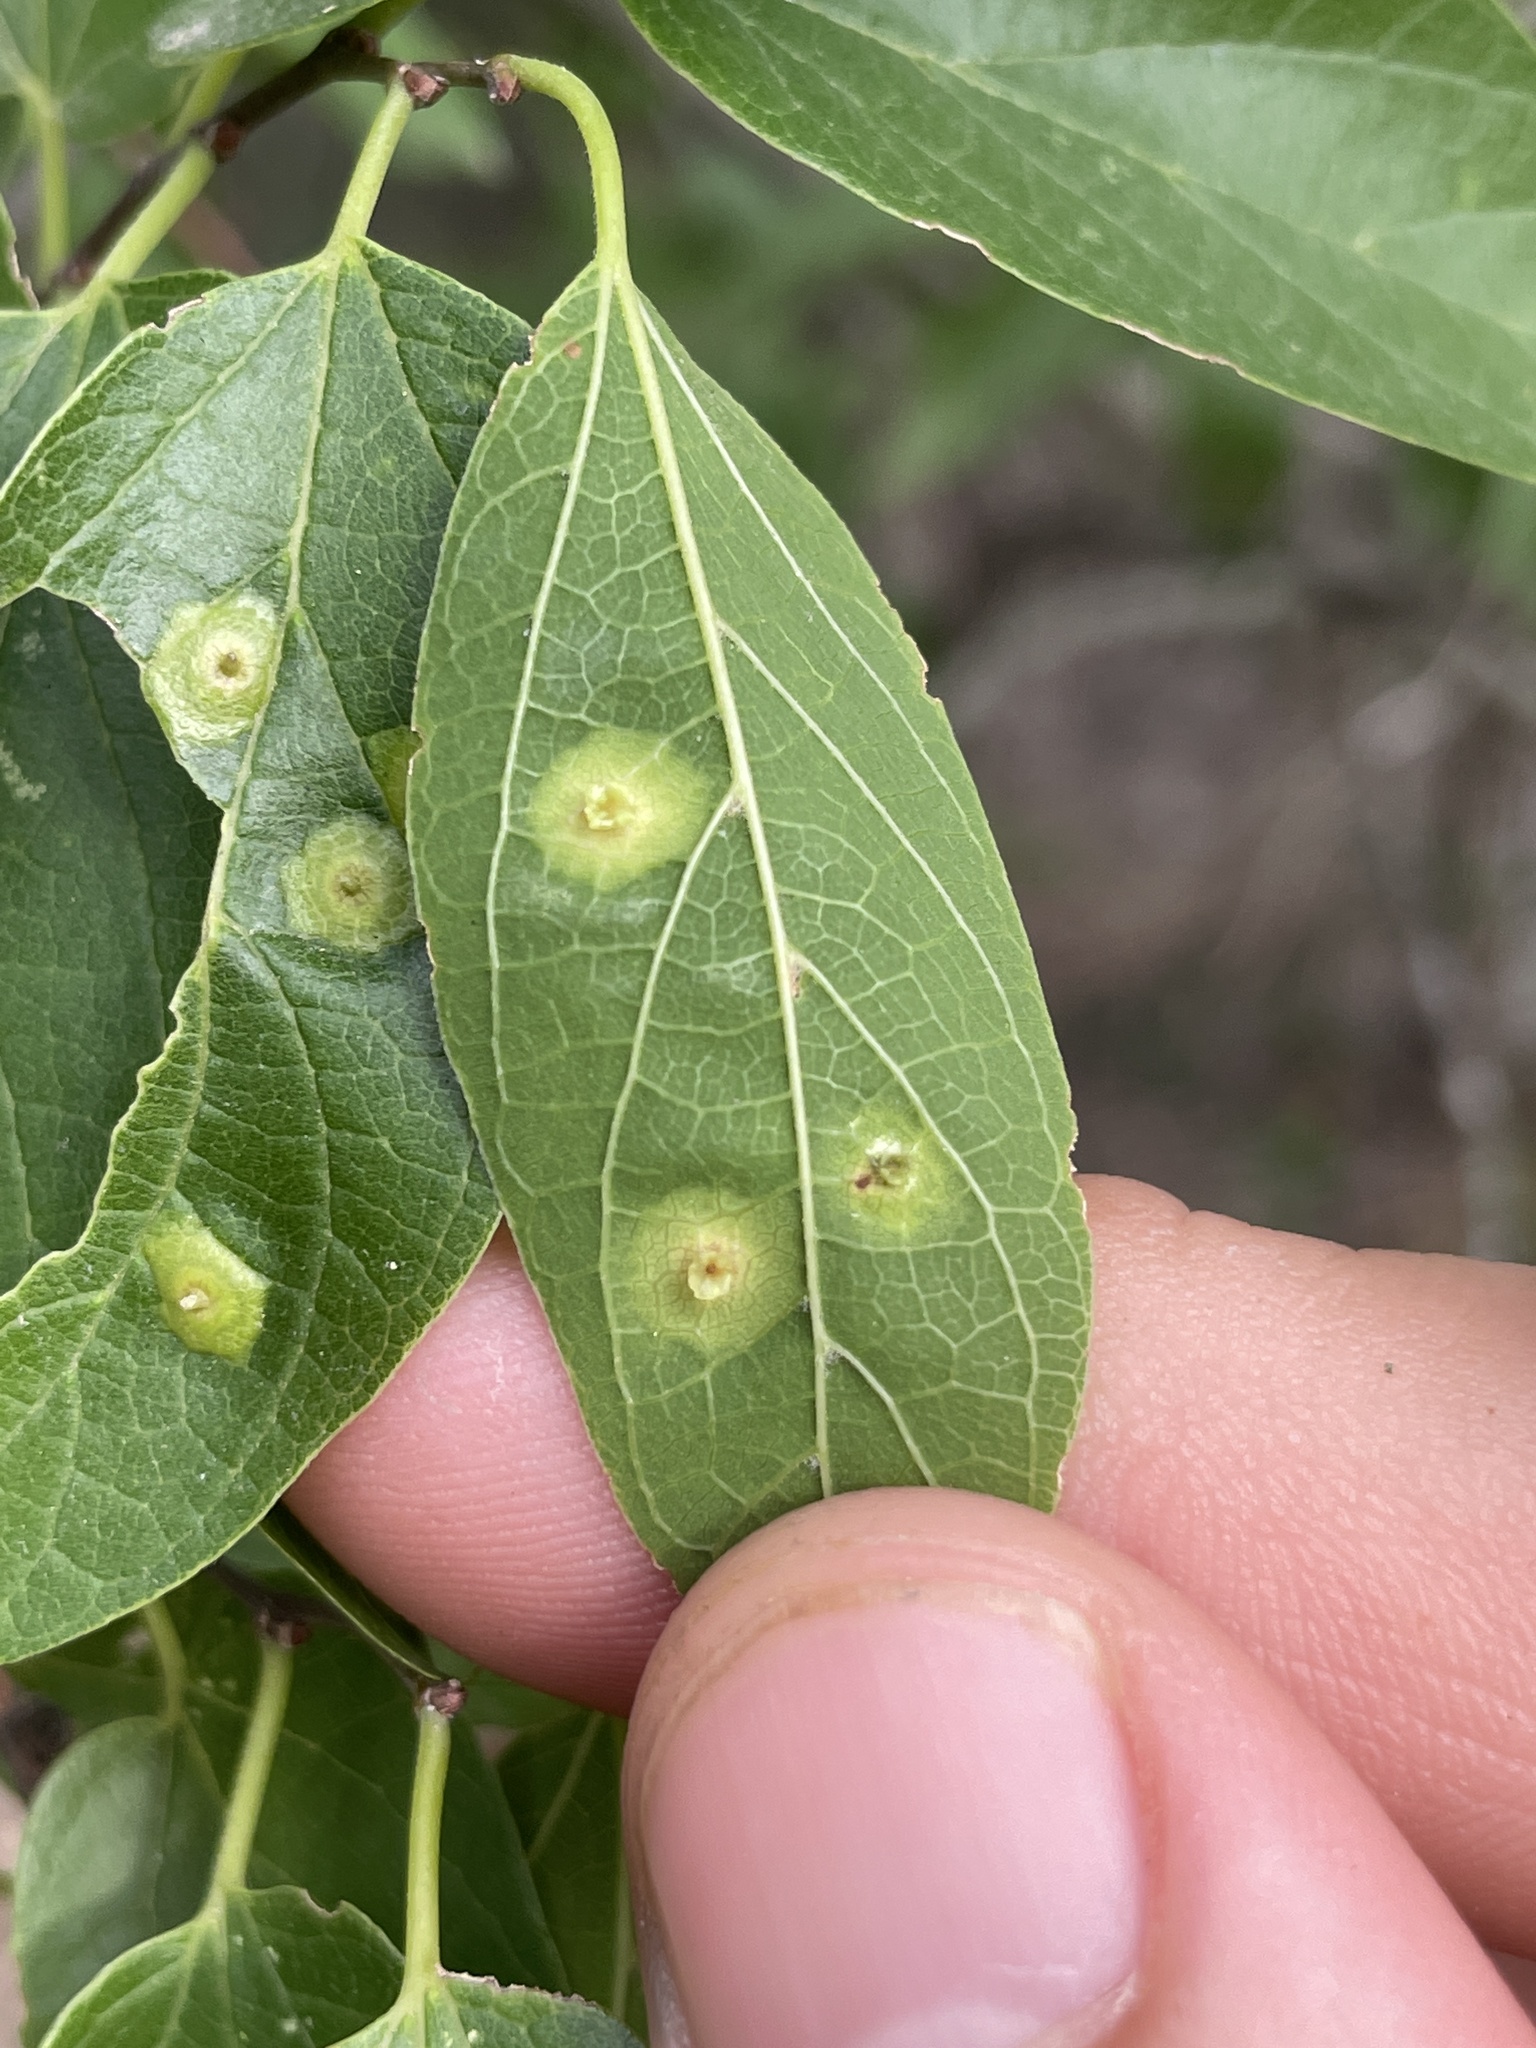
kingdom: Animalia
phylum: Arthropoda
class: Insecta
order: Hemiptera
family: Aphalaridae
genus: Pachypsylla
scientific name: Pachypsylla celtidisasterisca
